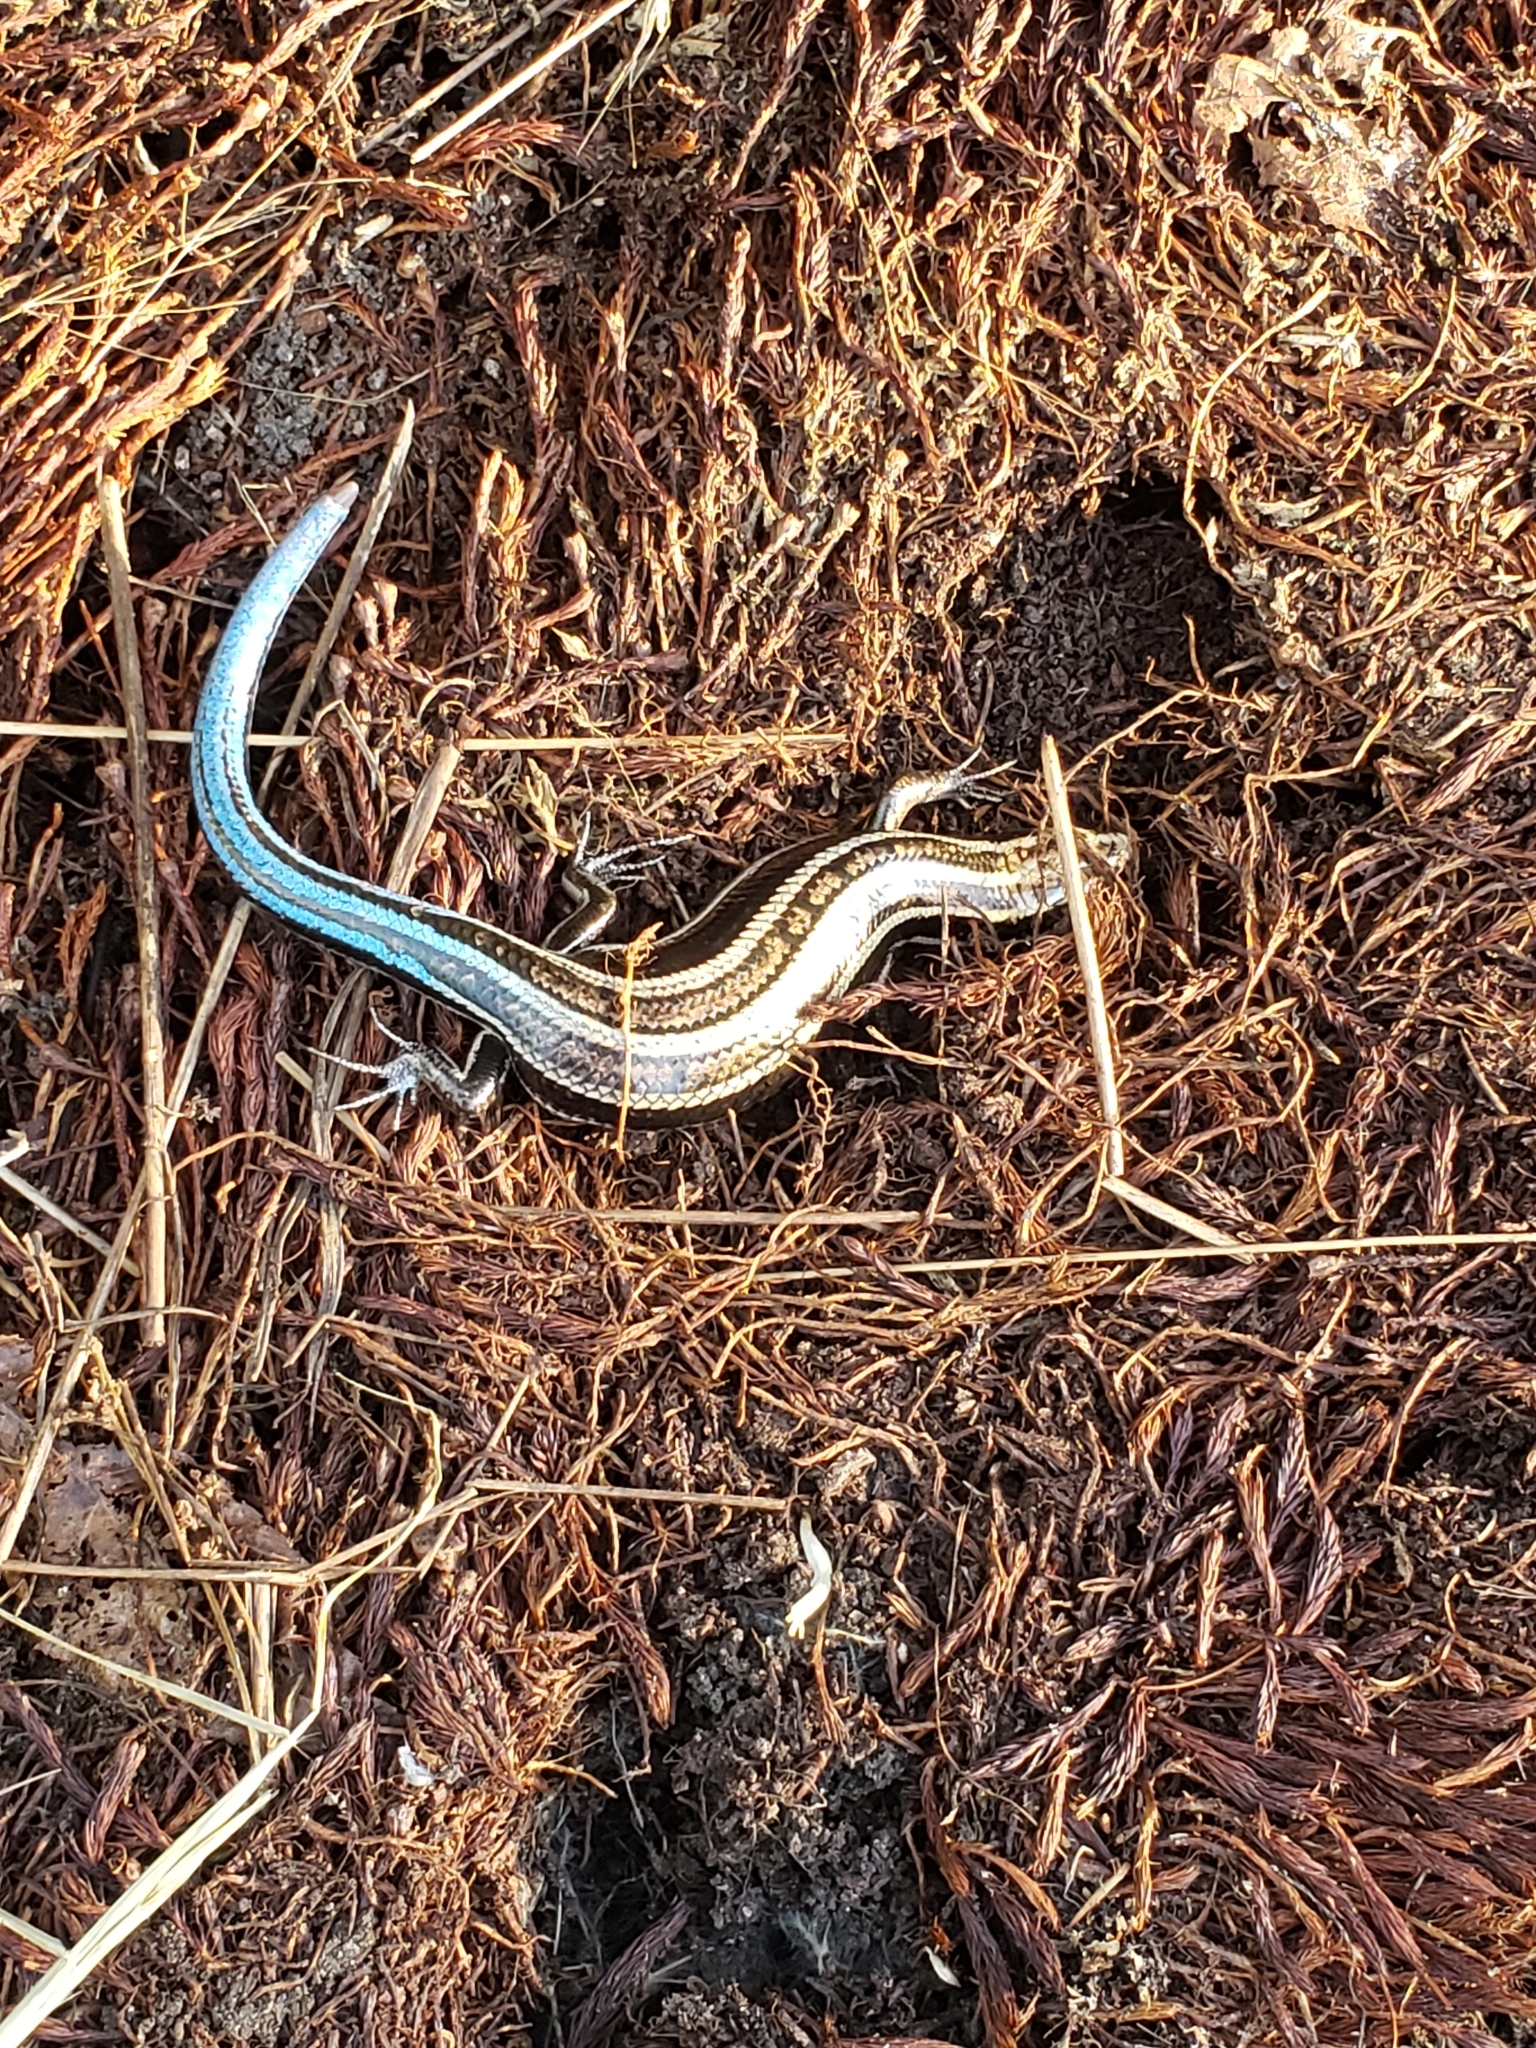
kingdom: Animalia
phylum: Chordata
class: Squamata
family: Scincidae
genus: Plestiodon
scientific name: Plestiodon fasciatus
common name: Five-lined skink
